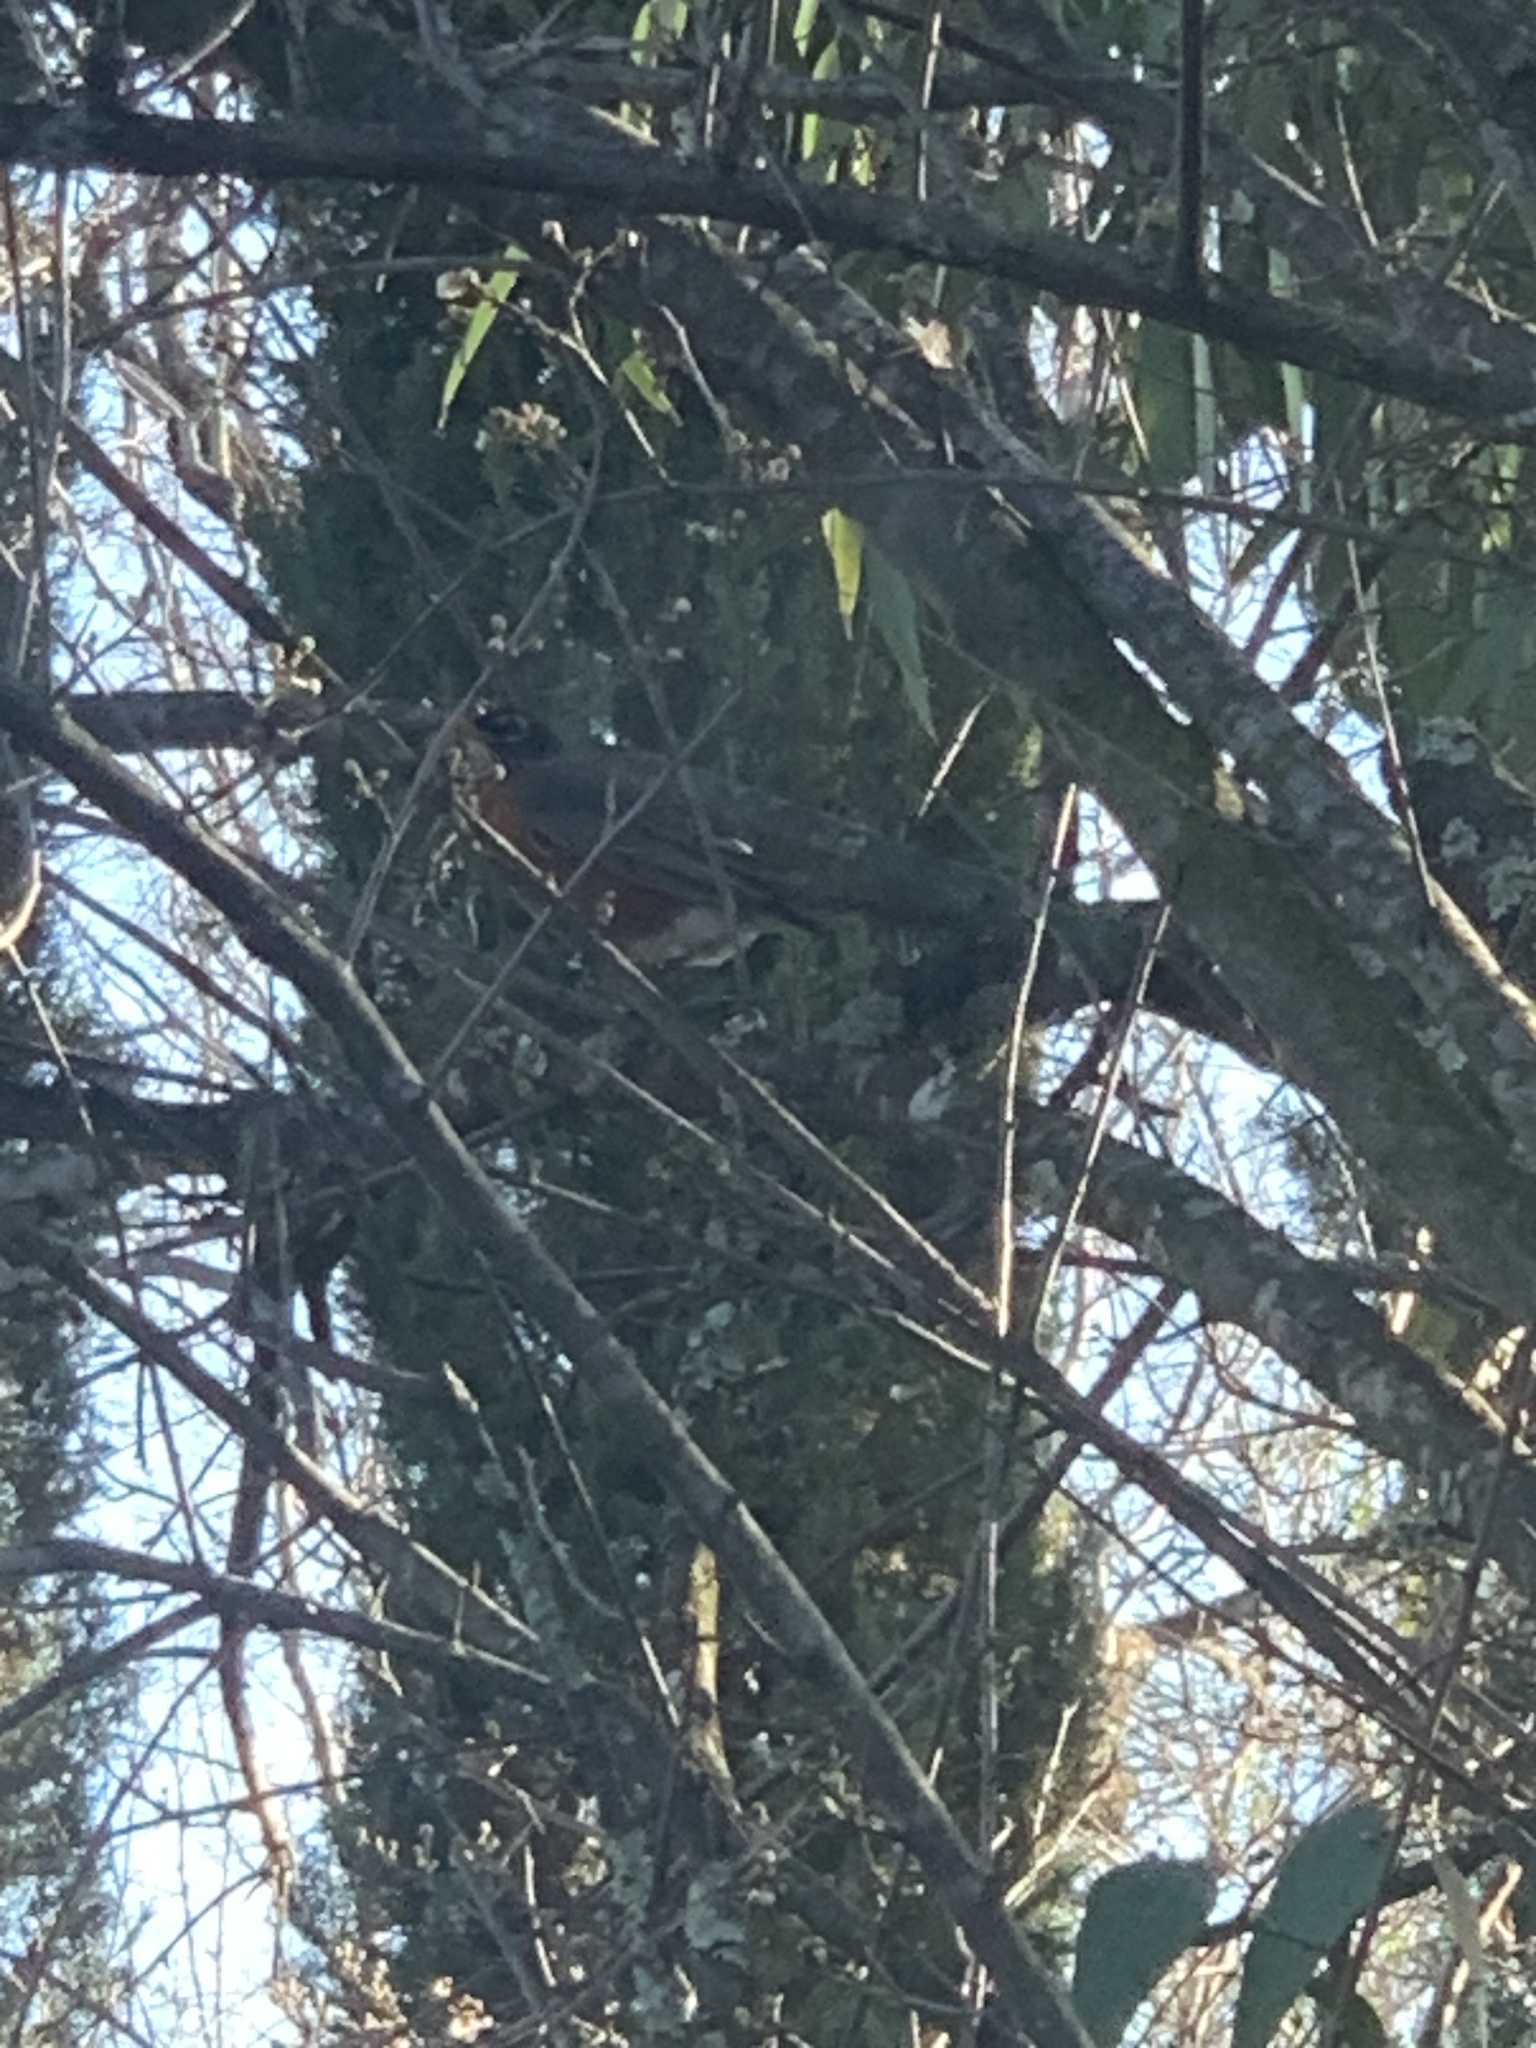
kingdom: Animalia
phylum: Chordata
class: Aves
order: Passeriformes
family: Turdidae
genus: Turdus
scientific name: Turdus migratorius
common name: American robin
